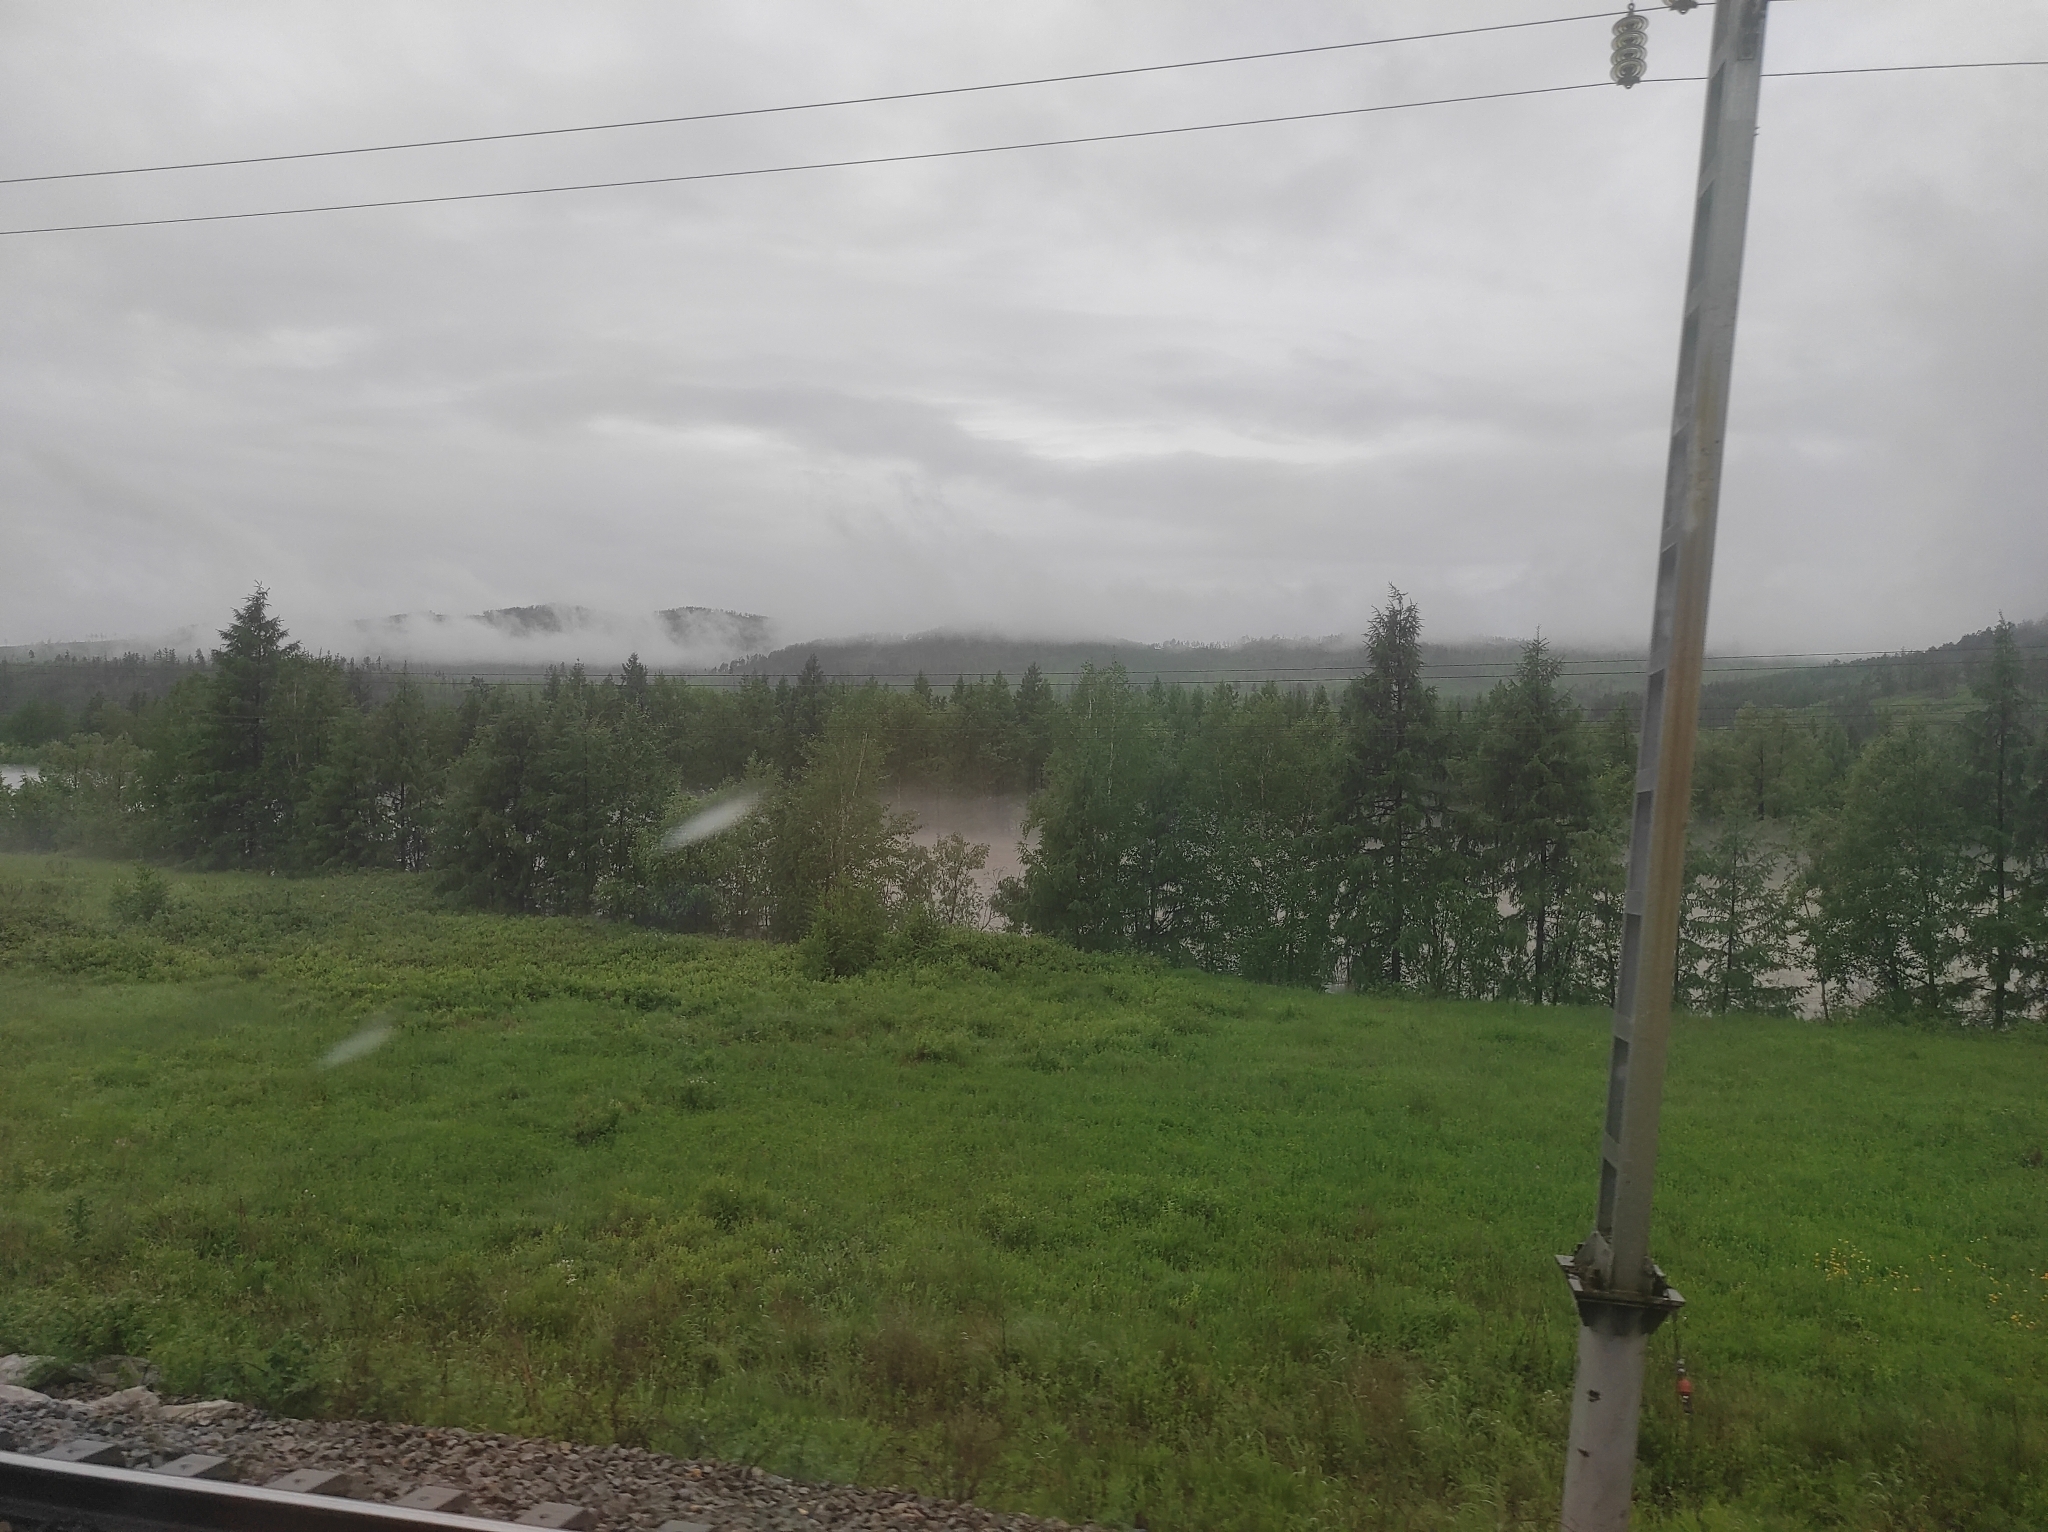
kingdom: Plantae
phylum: Tracheophyta
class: Pinopsida
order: Pinales
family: Pinaceae
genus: Larix
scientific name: Larix gmelinii
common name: Dahurian larch
